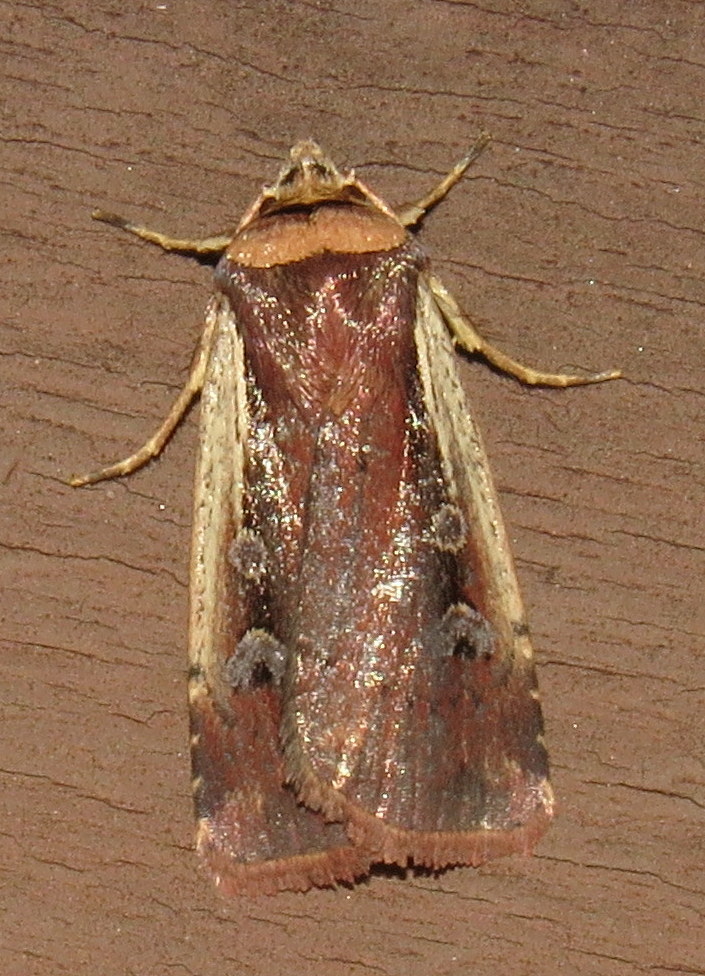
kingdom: Animalia
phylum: Arthropoda
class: Insecta
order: Lepidoptera
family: Noctuidae
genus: Ochropleura
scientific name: Ochropleura implecta
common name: Flame-shouldered dart
